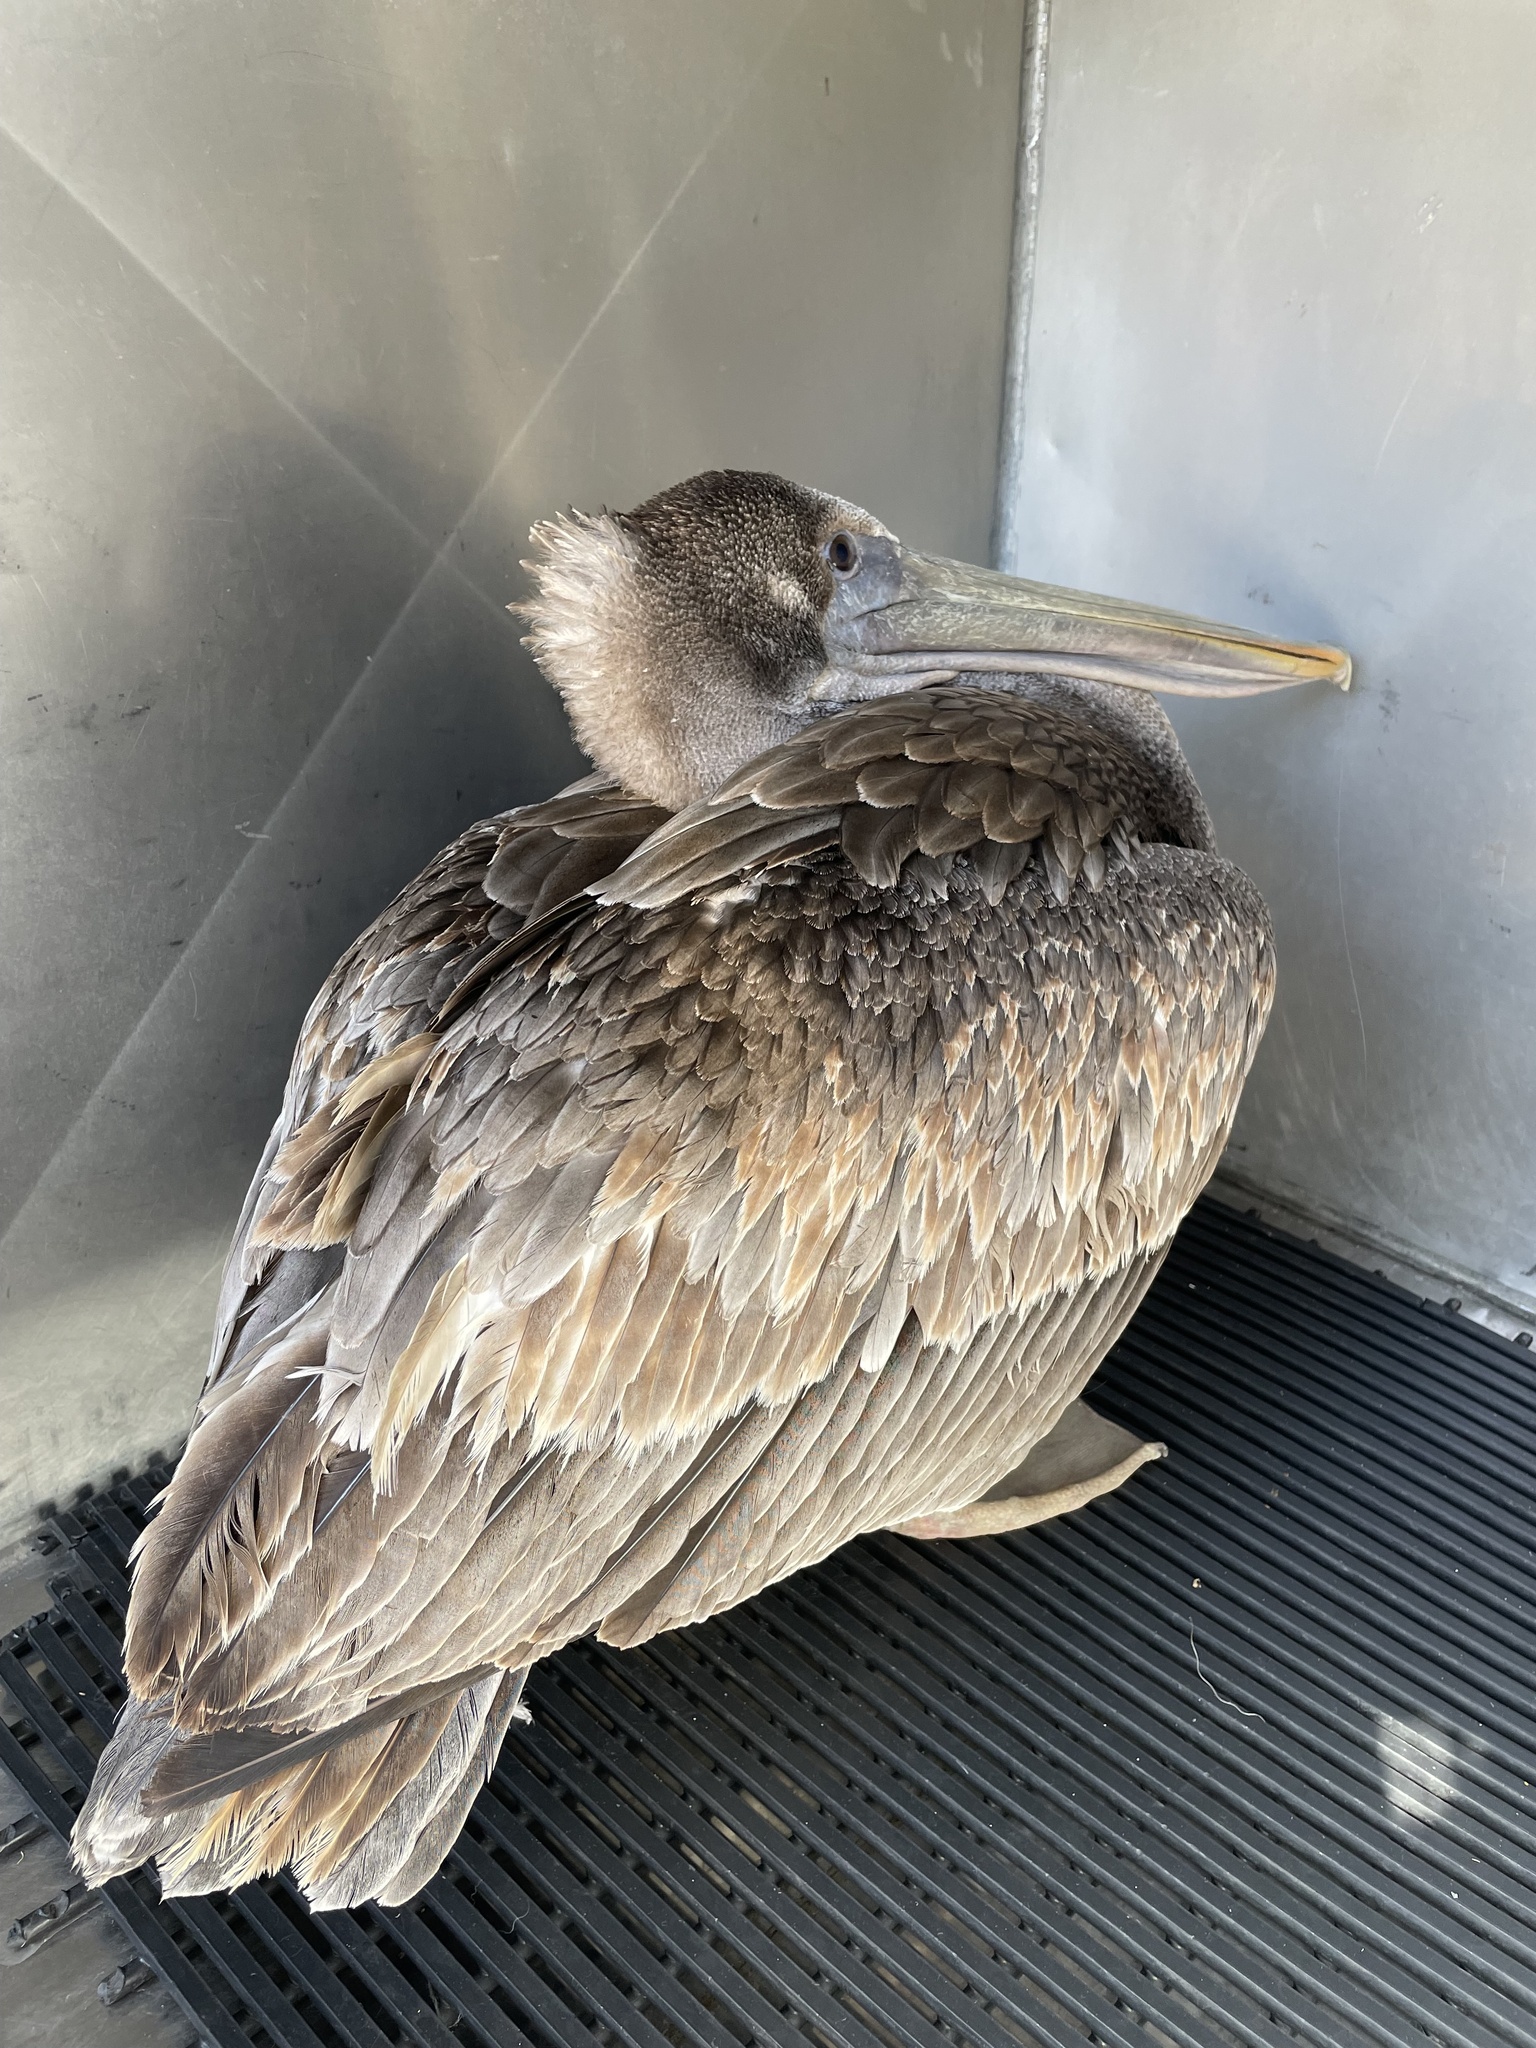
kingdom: Animalia
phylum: Chordata
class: Aves
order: Pelecaniformes
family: Pelecanidae
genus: Pelecanus
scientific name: Pelecanus occidentalis
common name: Brown pelican
